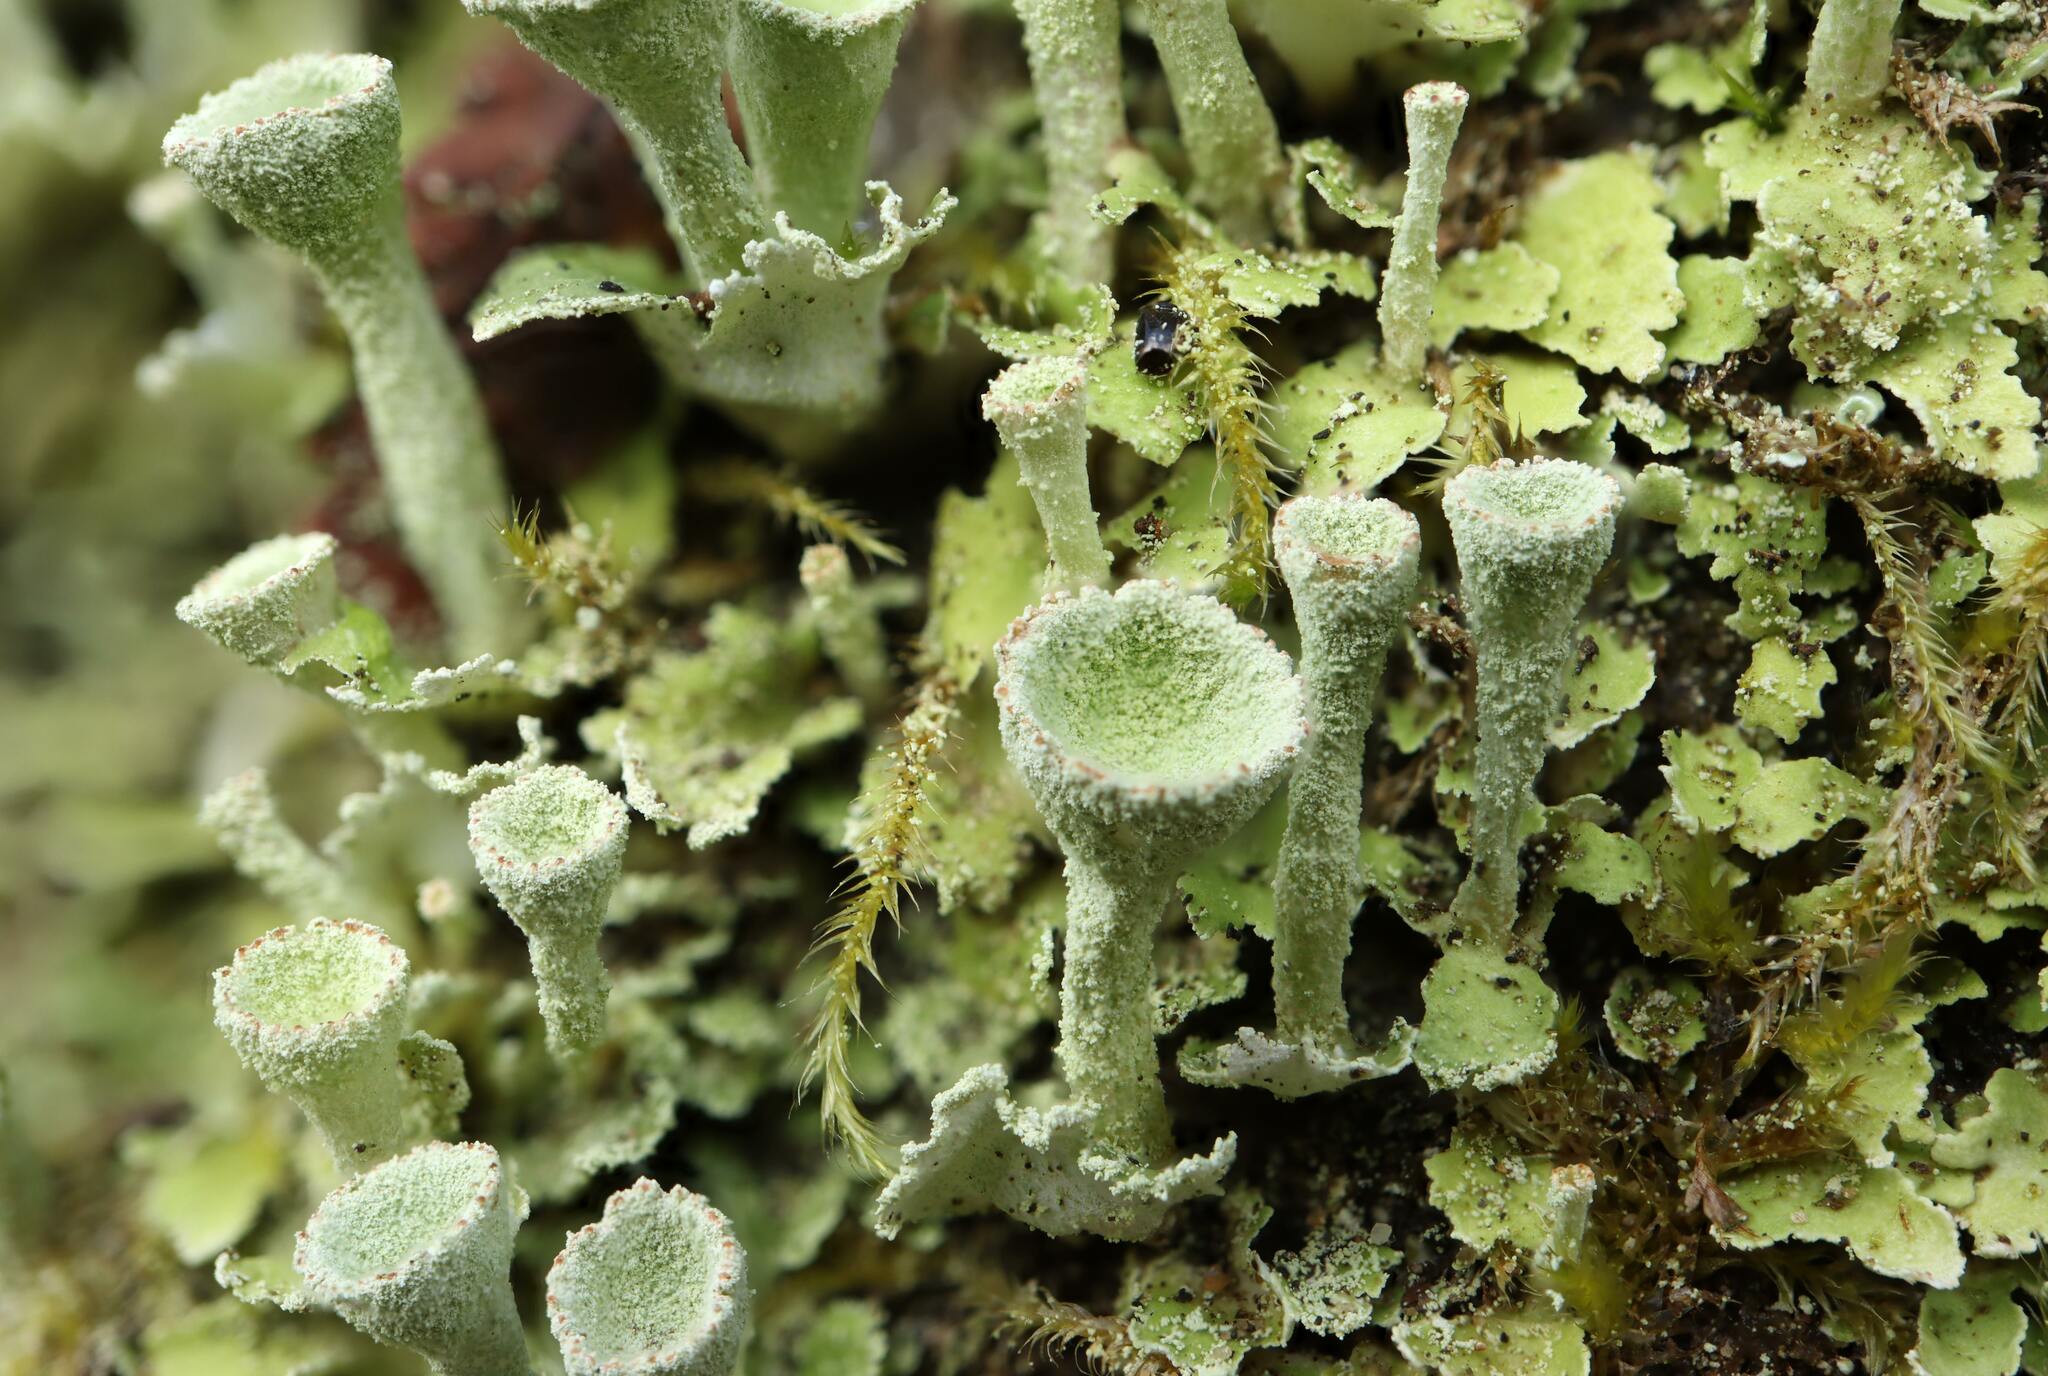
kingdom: Fungi
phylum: Ascomycota
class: Lecanoromycetes
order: Lecanorales
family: Cladoniaceae
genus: Cladonia
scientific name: Cladonia fimbriata
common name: Powdered trumpet lichen
